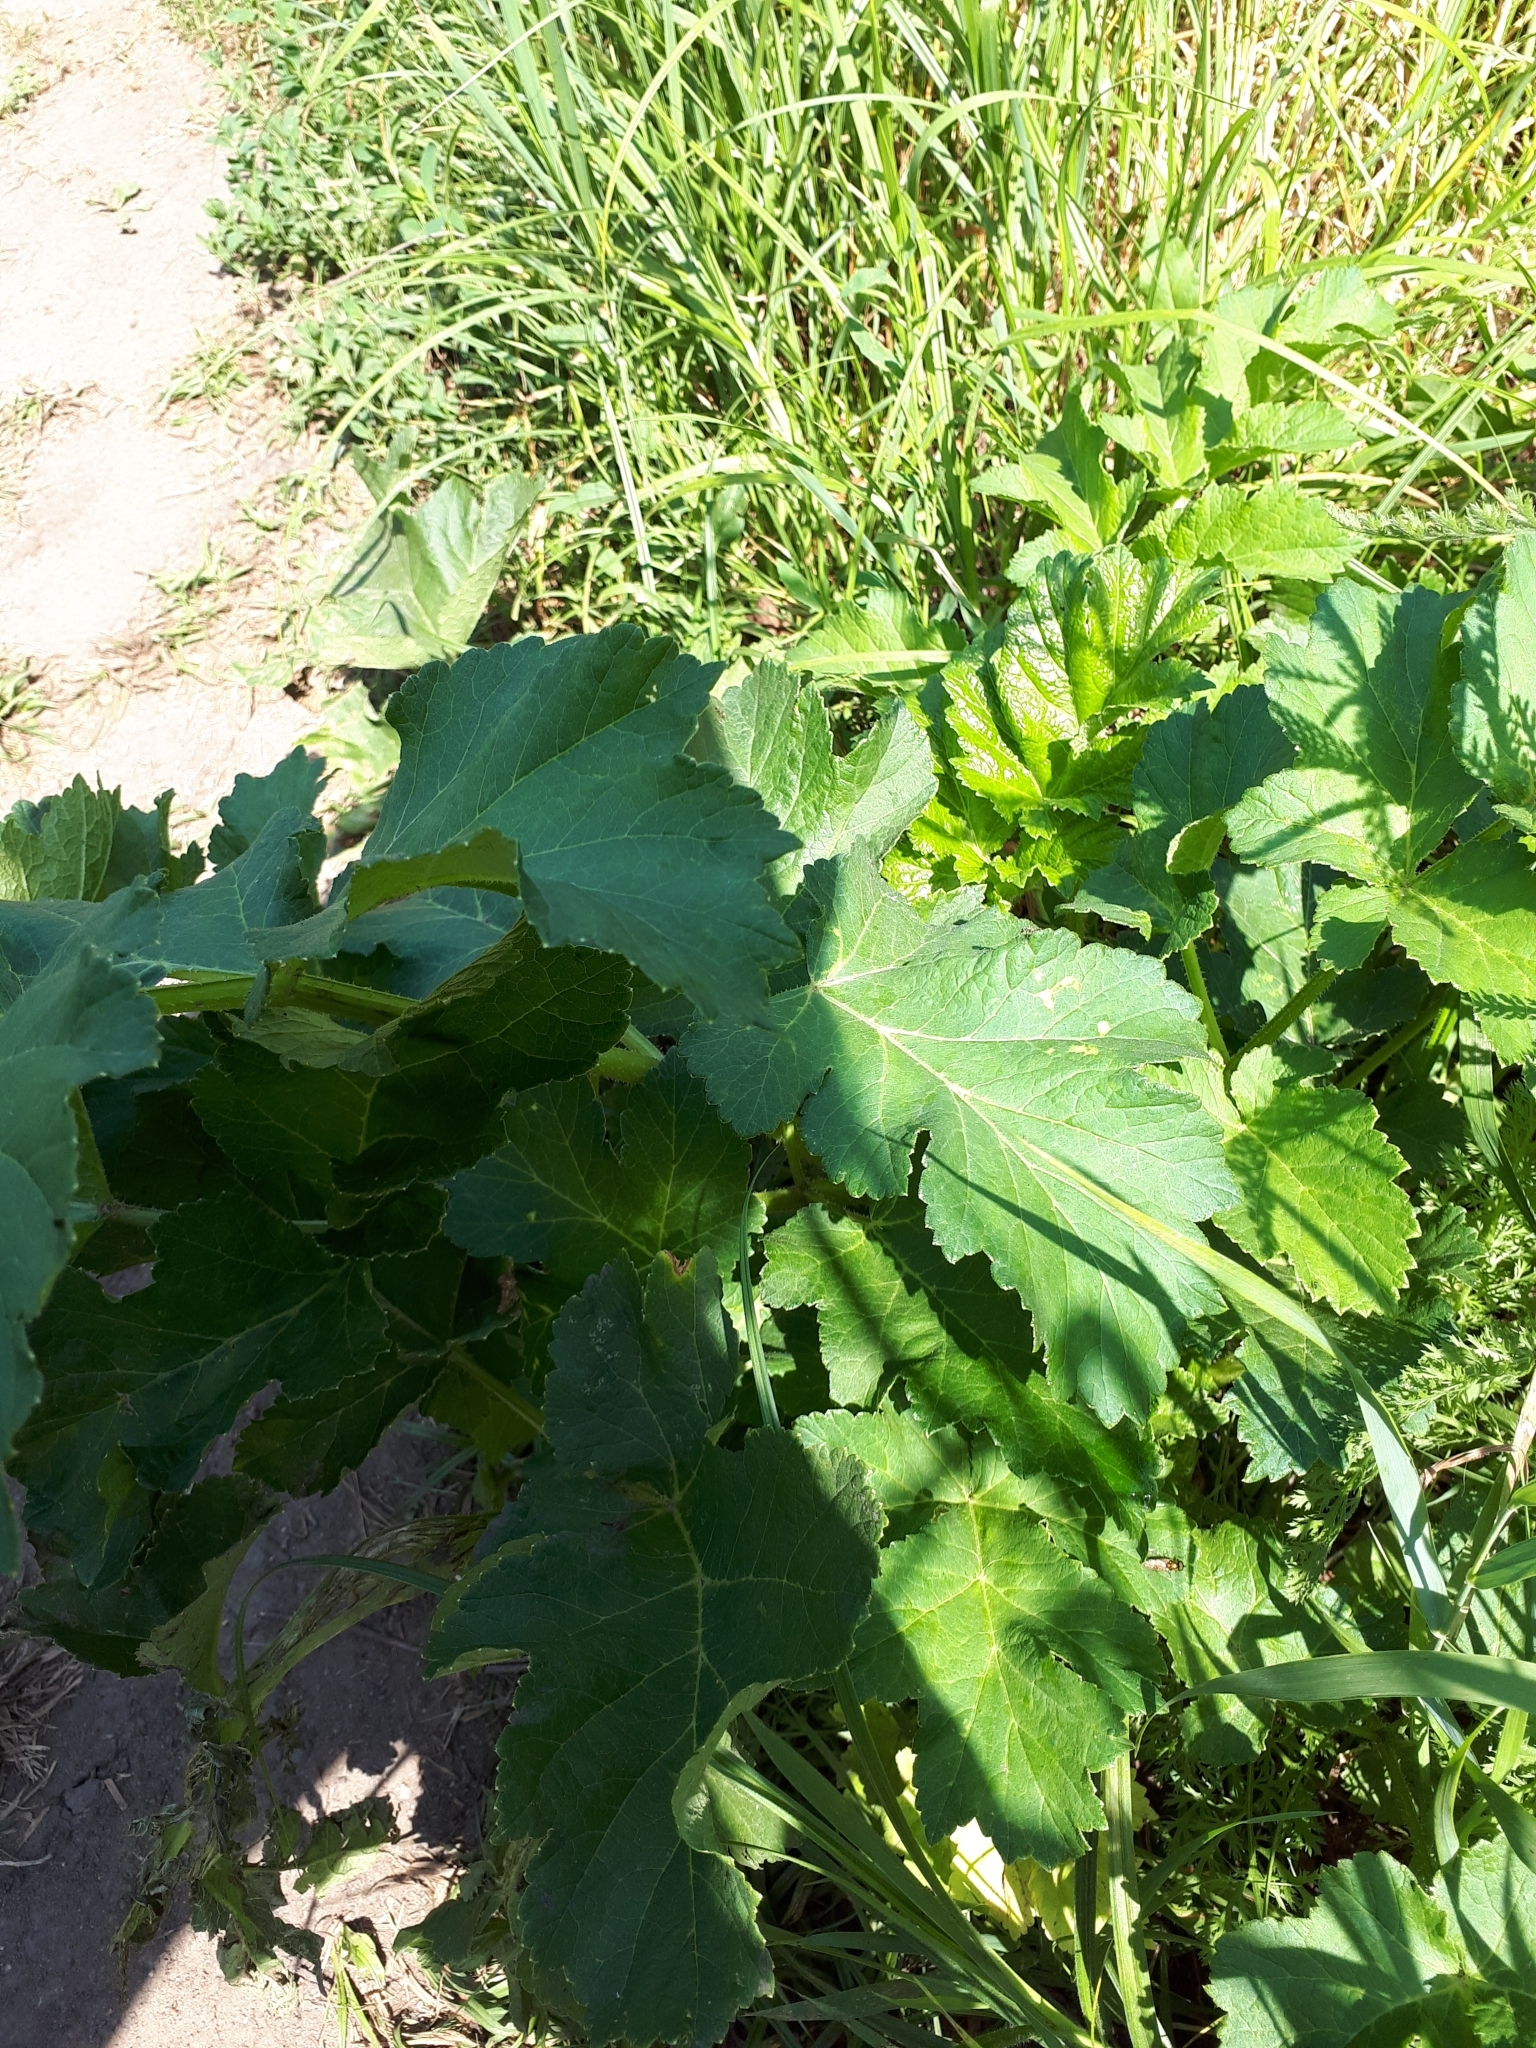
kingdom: Plantae
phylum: Tracheophyta
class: Magnoliopsida
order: Apiales
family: Apiaceae
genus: Heracleum
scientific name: Heracleum sphondylium
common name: Hogweed
